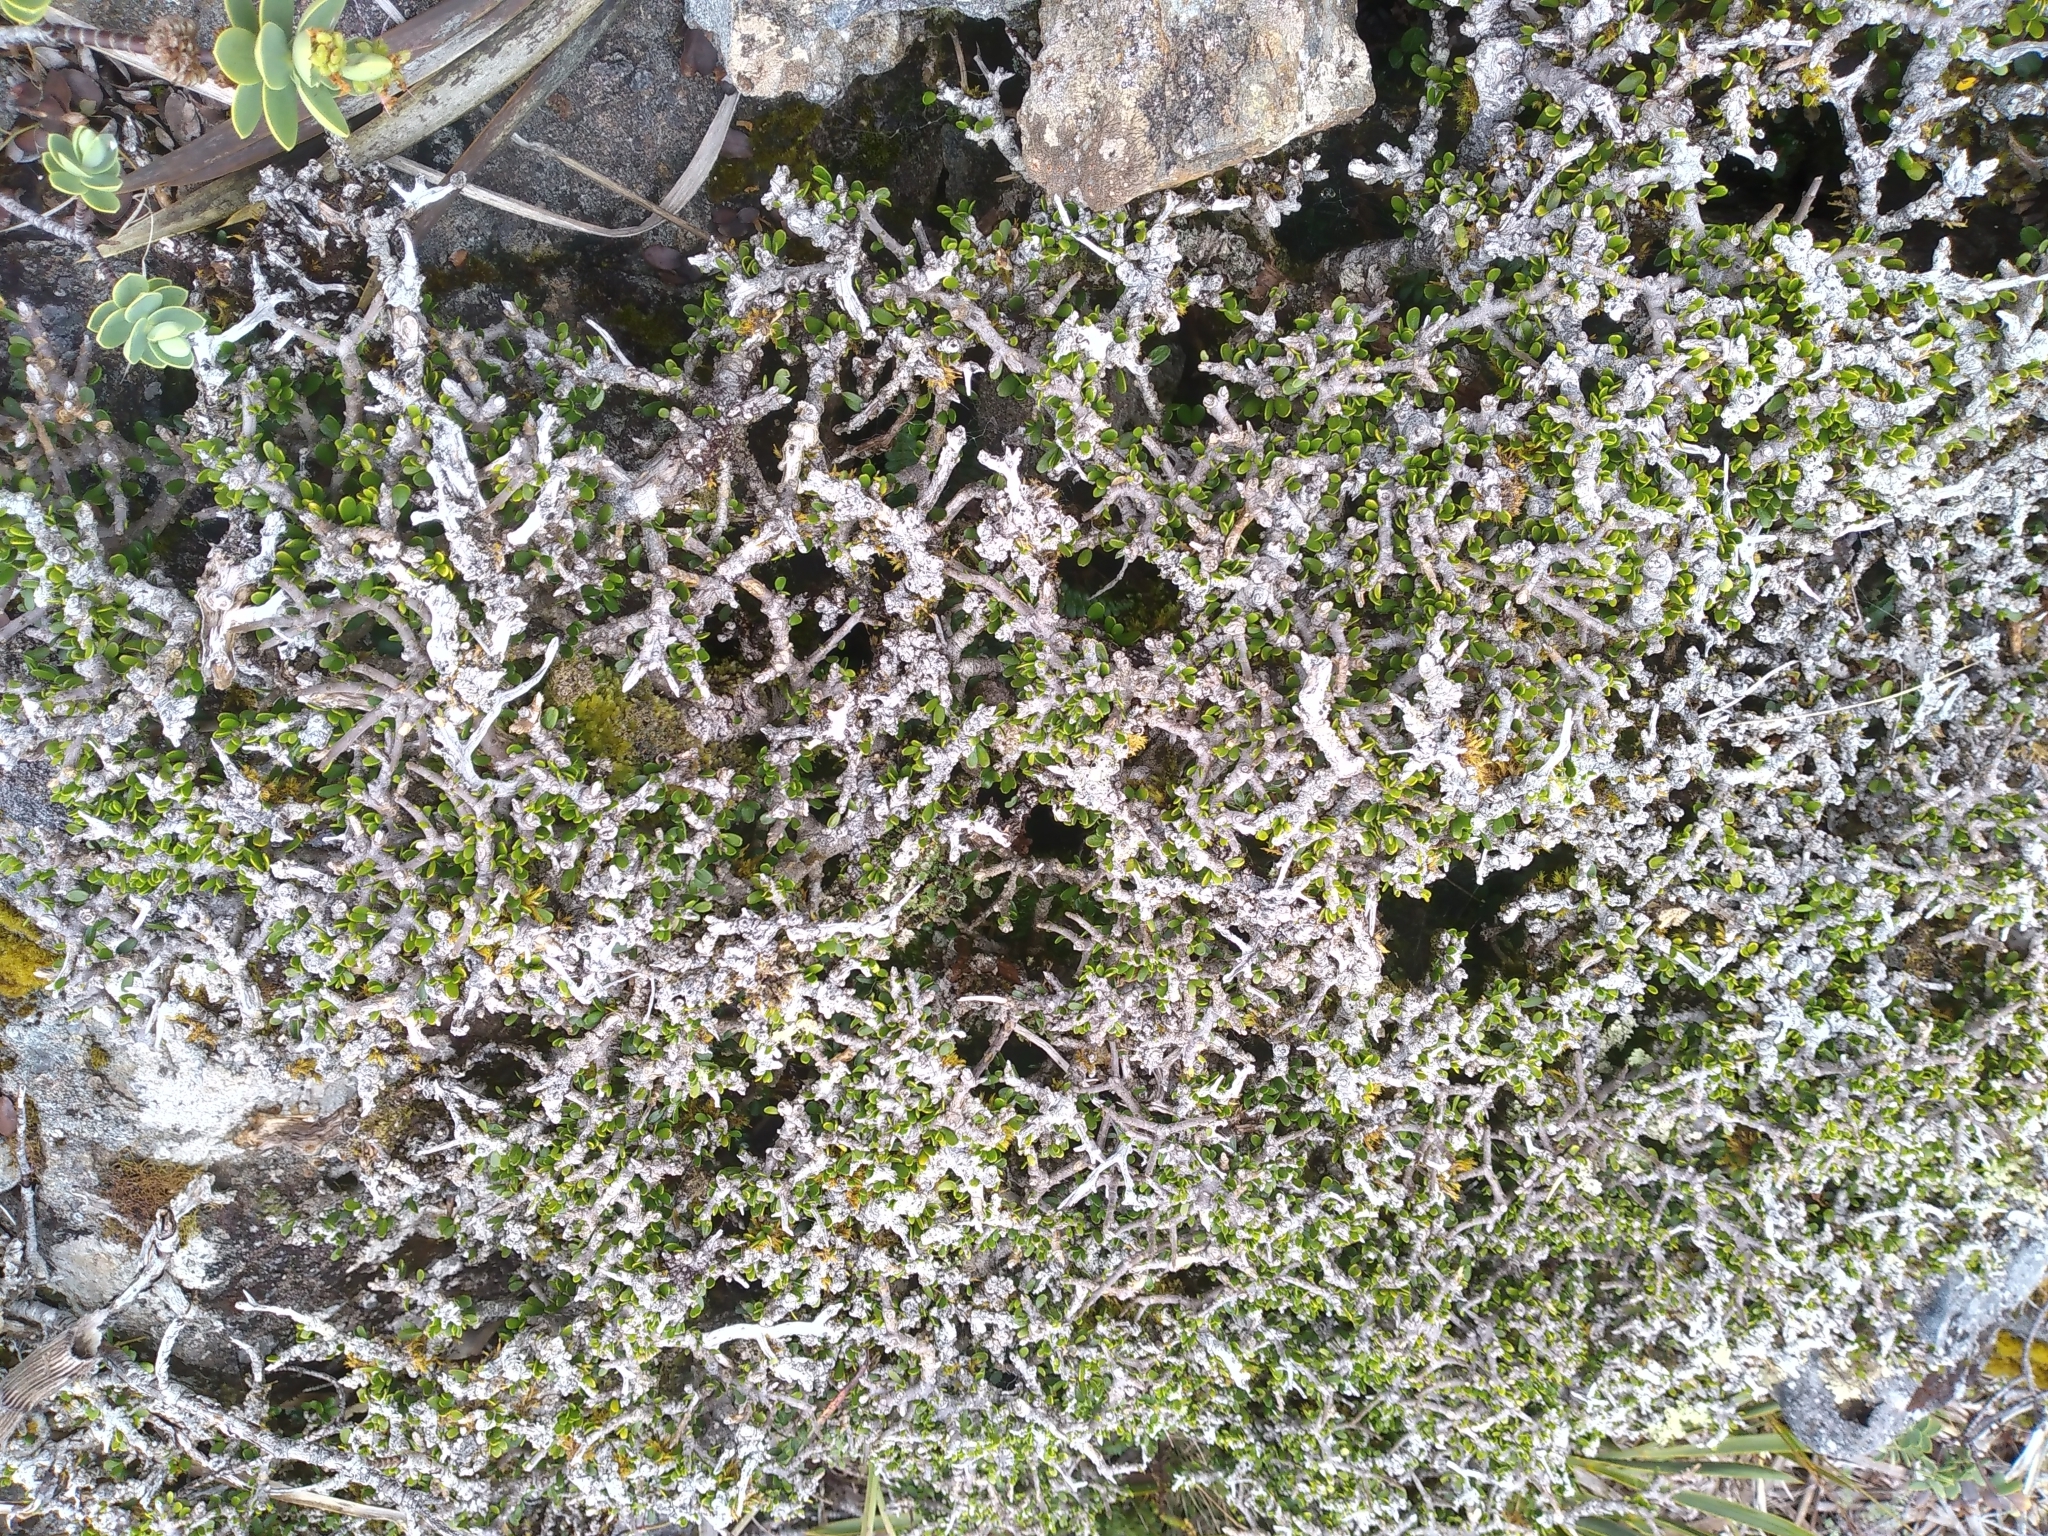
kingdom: Plantae
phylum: Tracheophyta
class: Magnoliopsida
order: Malpighiales
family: Violaceae
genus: Melicytus
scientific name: Melicytus alpinus
